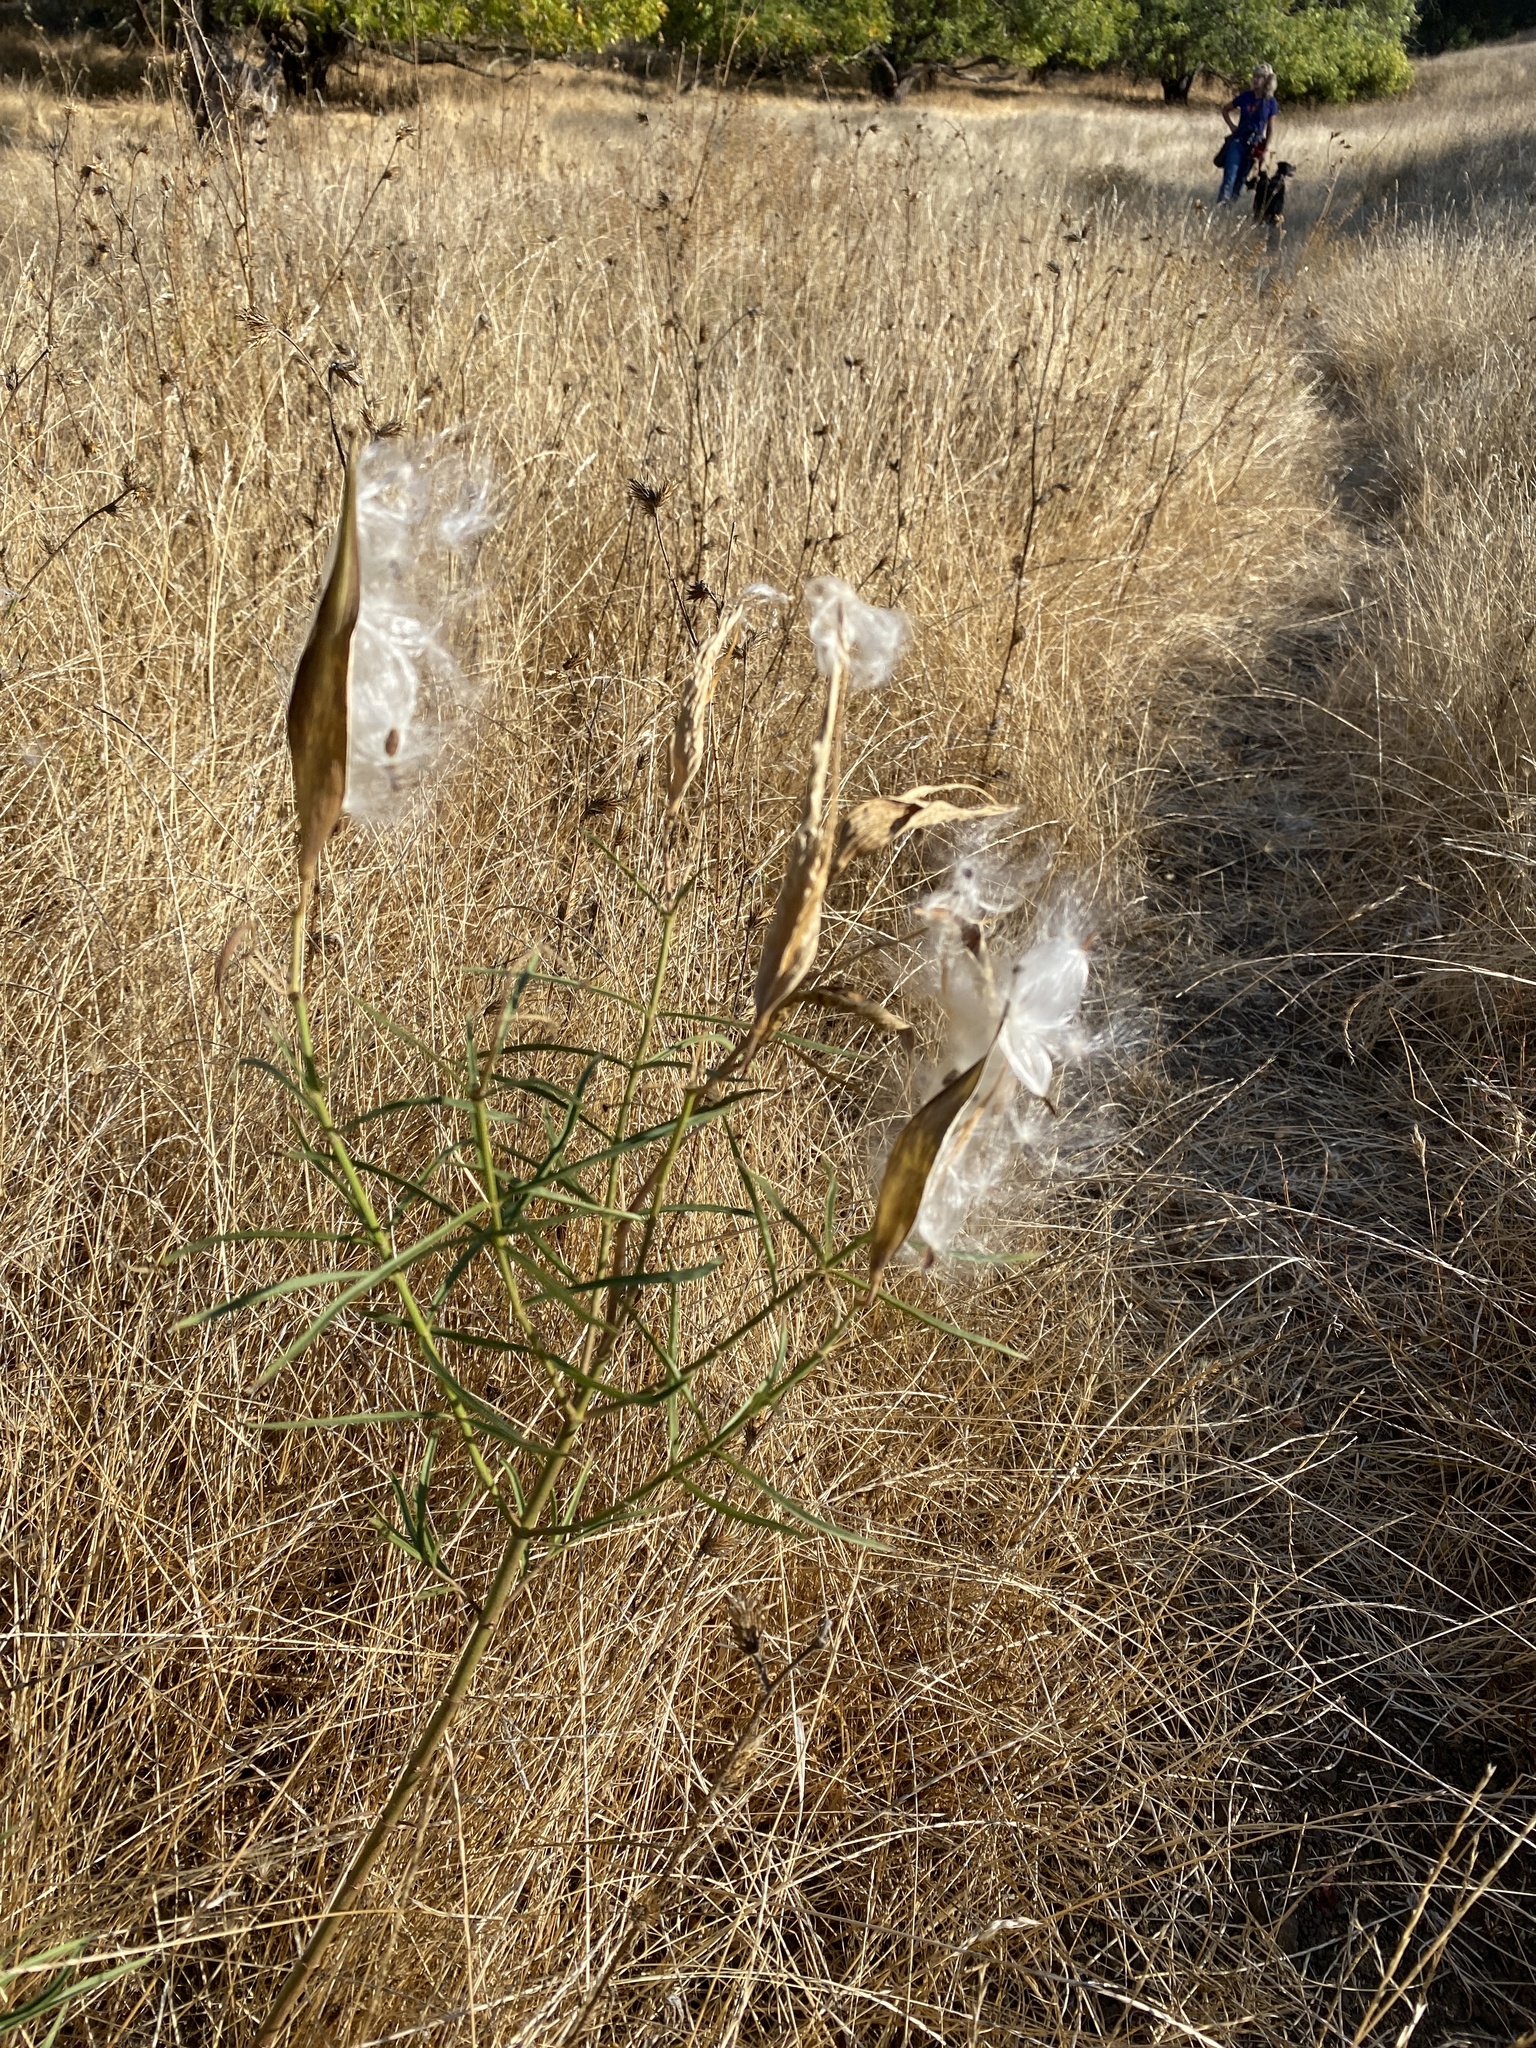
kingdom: Plantae
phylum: Tracheophyta
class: Magnoliopsida
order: Gentianales
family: Apocynaceae
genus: Asclepias
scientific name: Asclepias fascicularis
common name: Mexican milkweed
